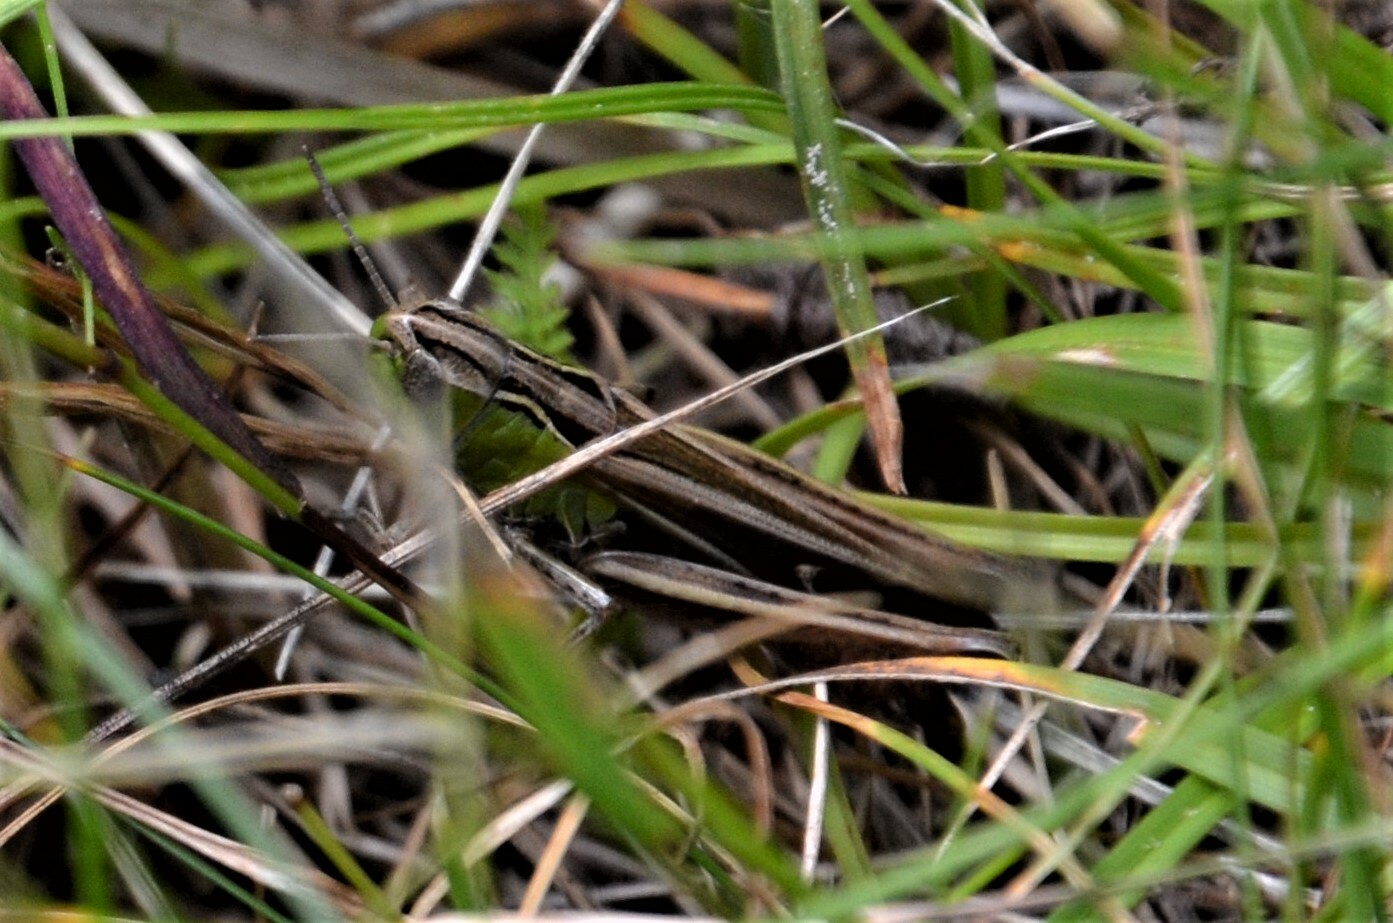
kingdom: Animalia
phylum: Arthropoda
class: Insecta
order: Orthoptera
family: Acrididae
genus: Stenobothrus
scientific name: Stenobothrus lineatus
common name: Stripe-winged grasshopper
